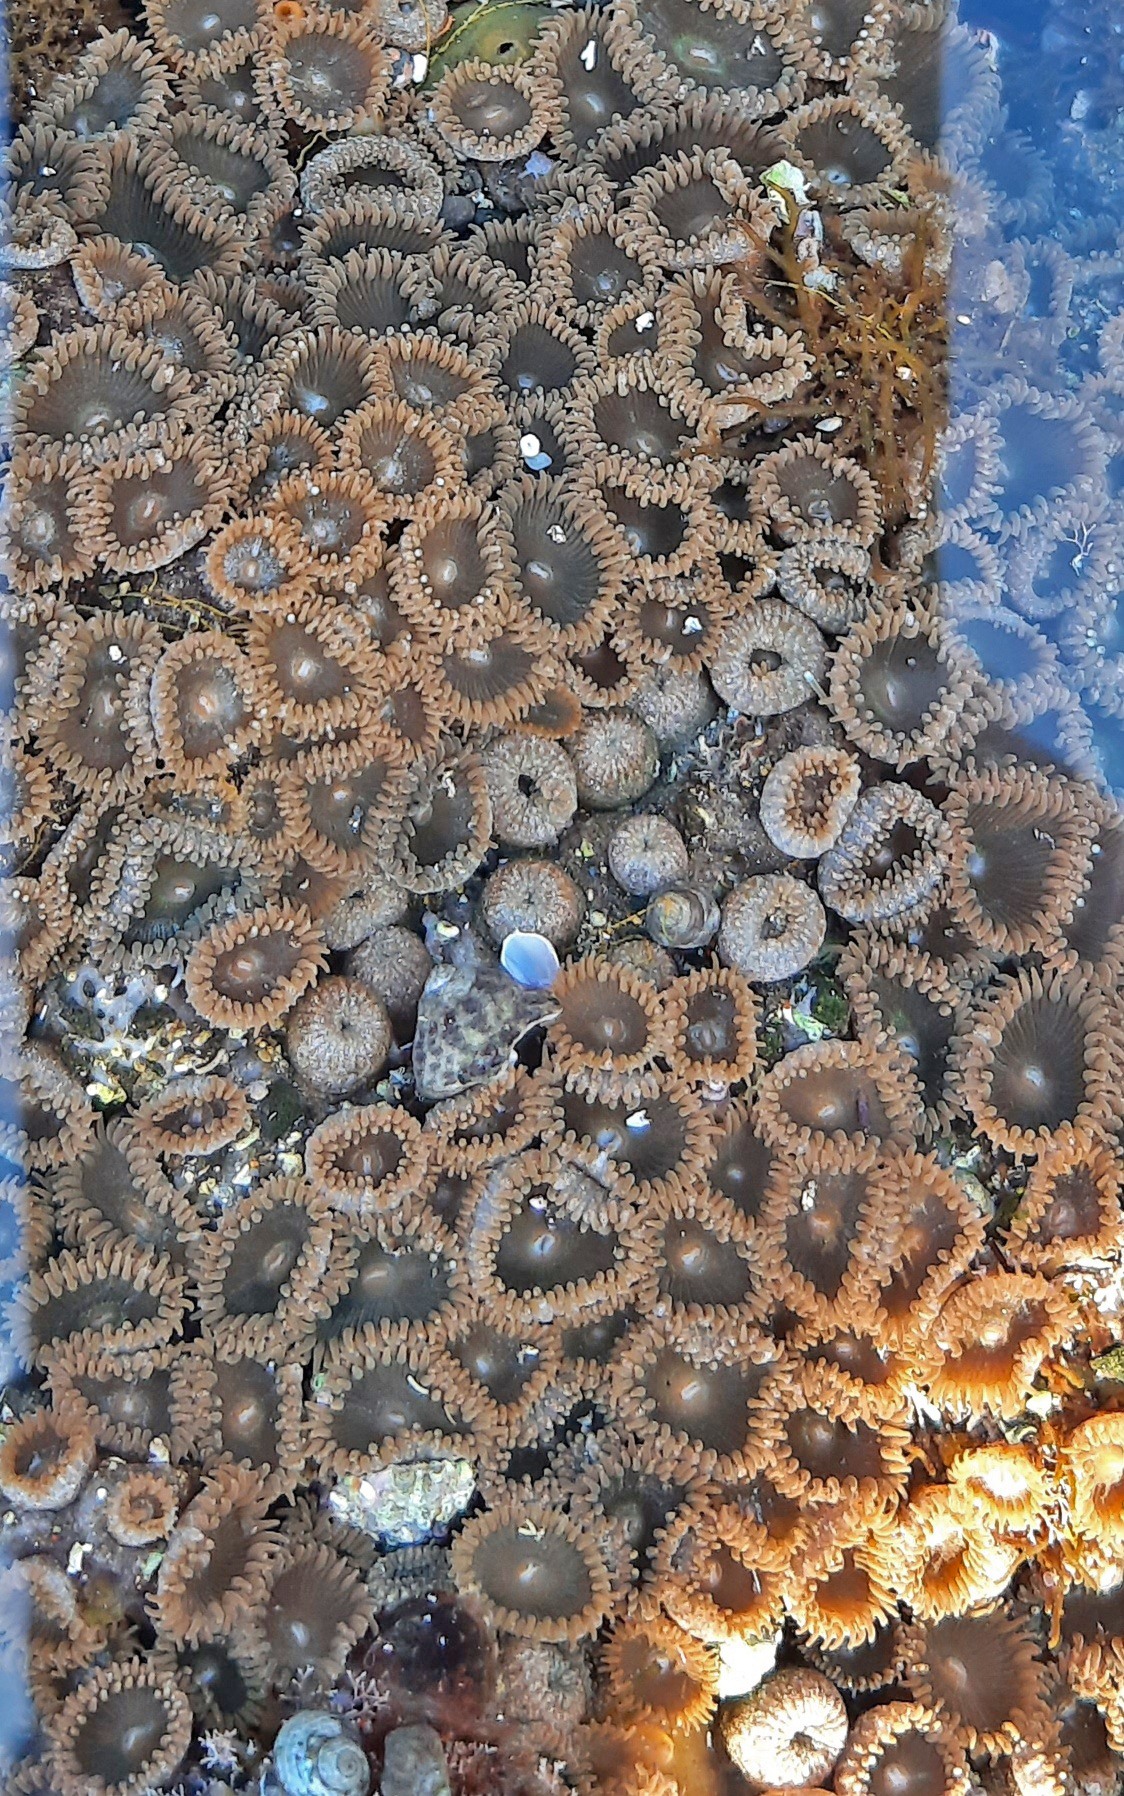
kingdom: Animalia
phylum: Cnidaria
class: Anthozoa
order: Zoantharia
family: Sphenopidae
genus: Palythoa
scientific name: Palythoa grandiflora
